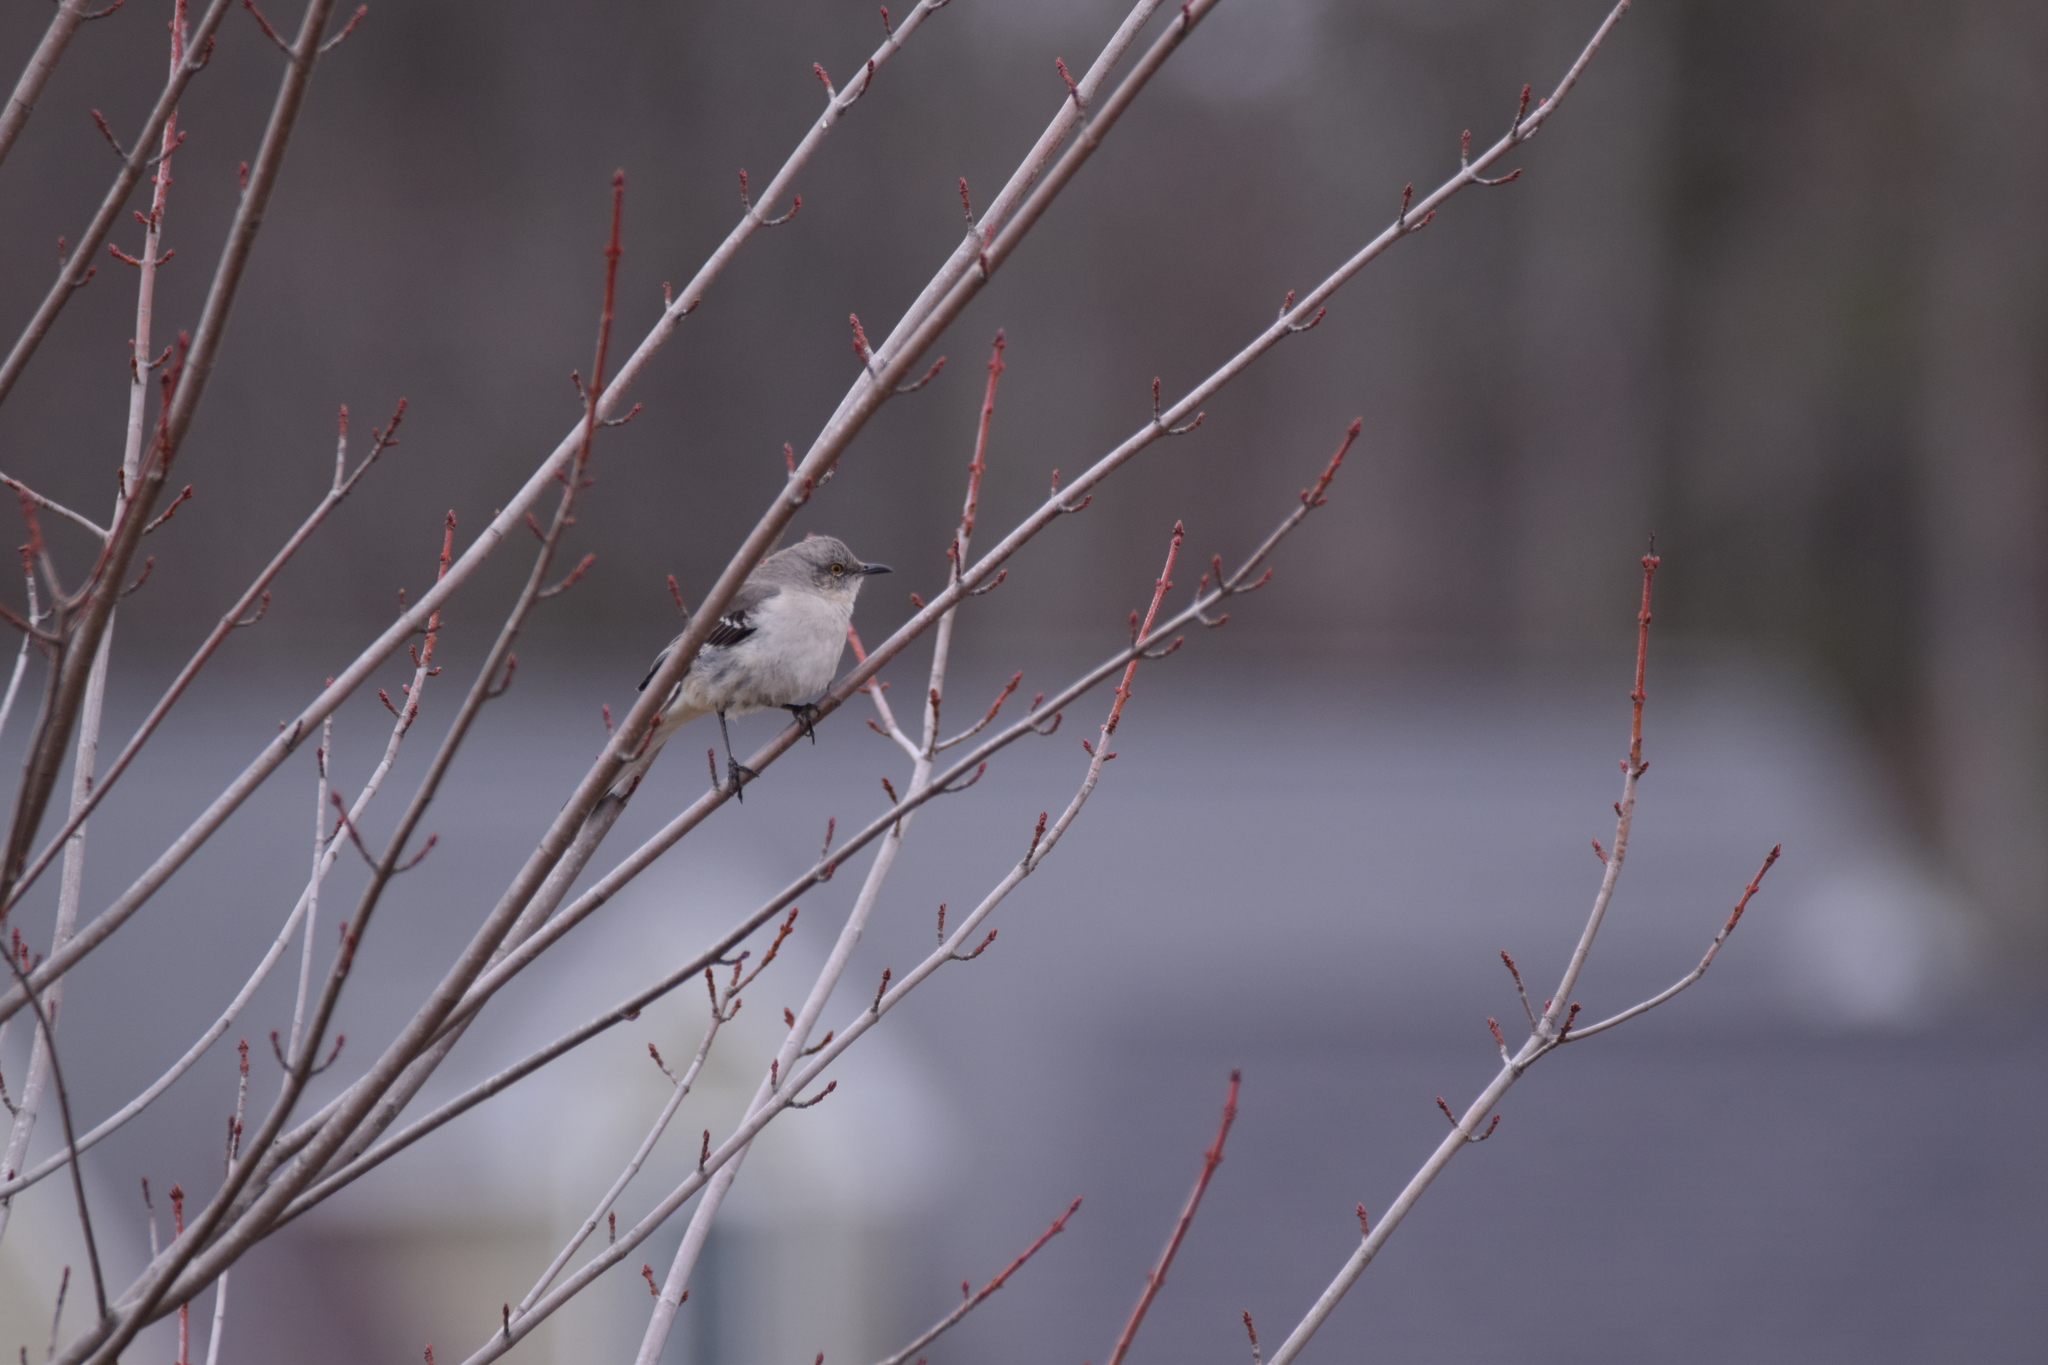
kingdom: Animalia
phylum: Chordata
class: Aves
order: Passeriformes
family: Mimidae
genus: Mimus
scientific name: Mimus polyglottos
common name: Northern mockingbird
